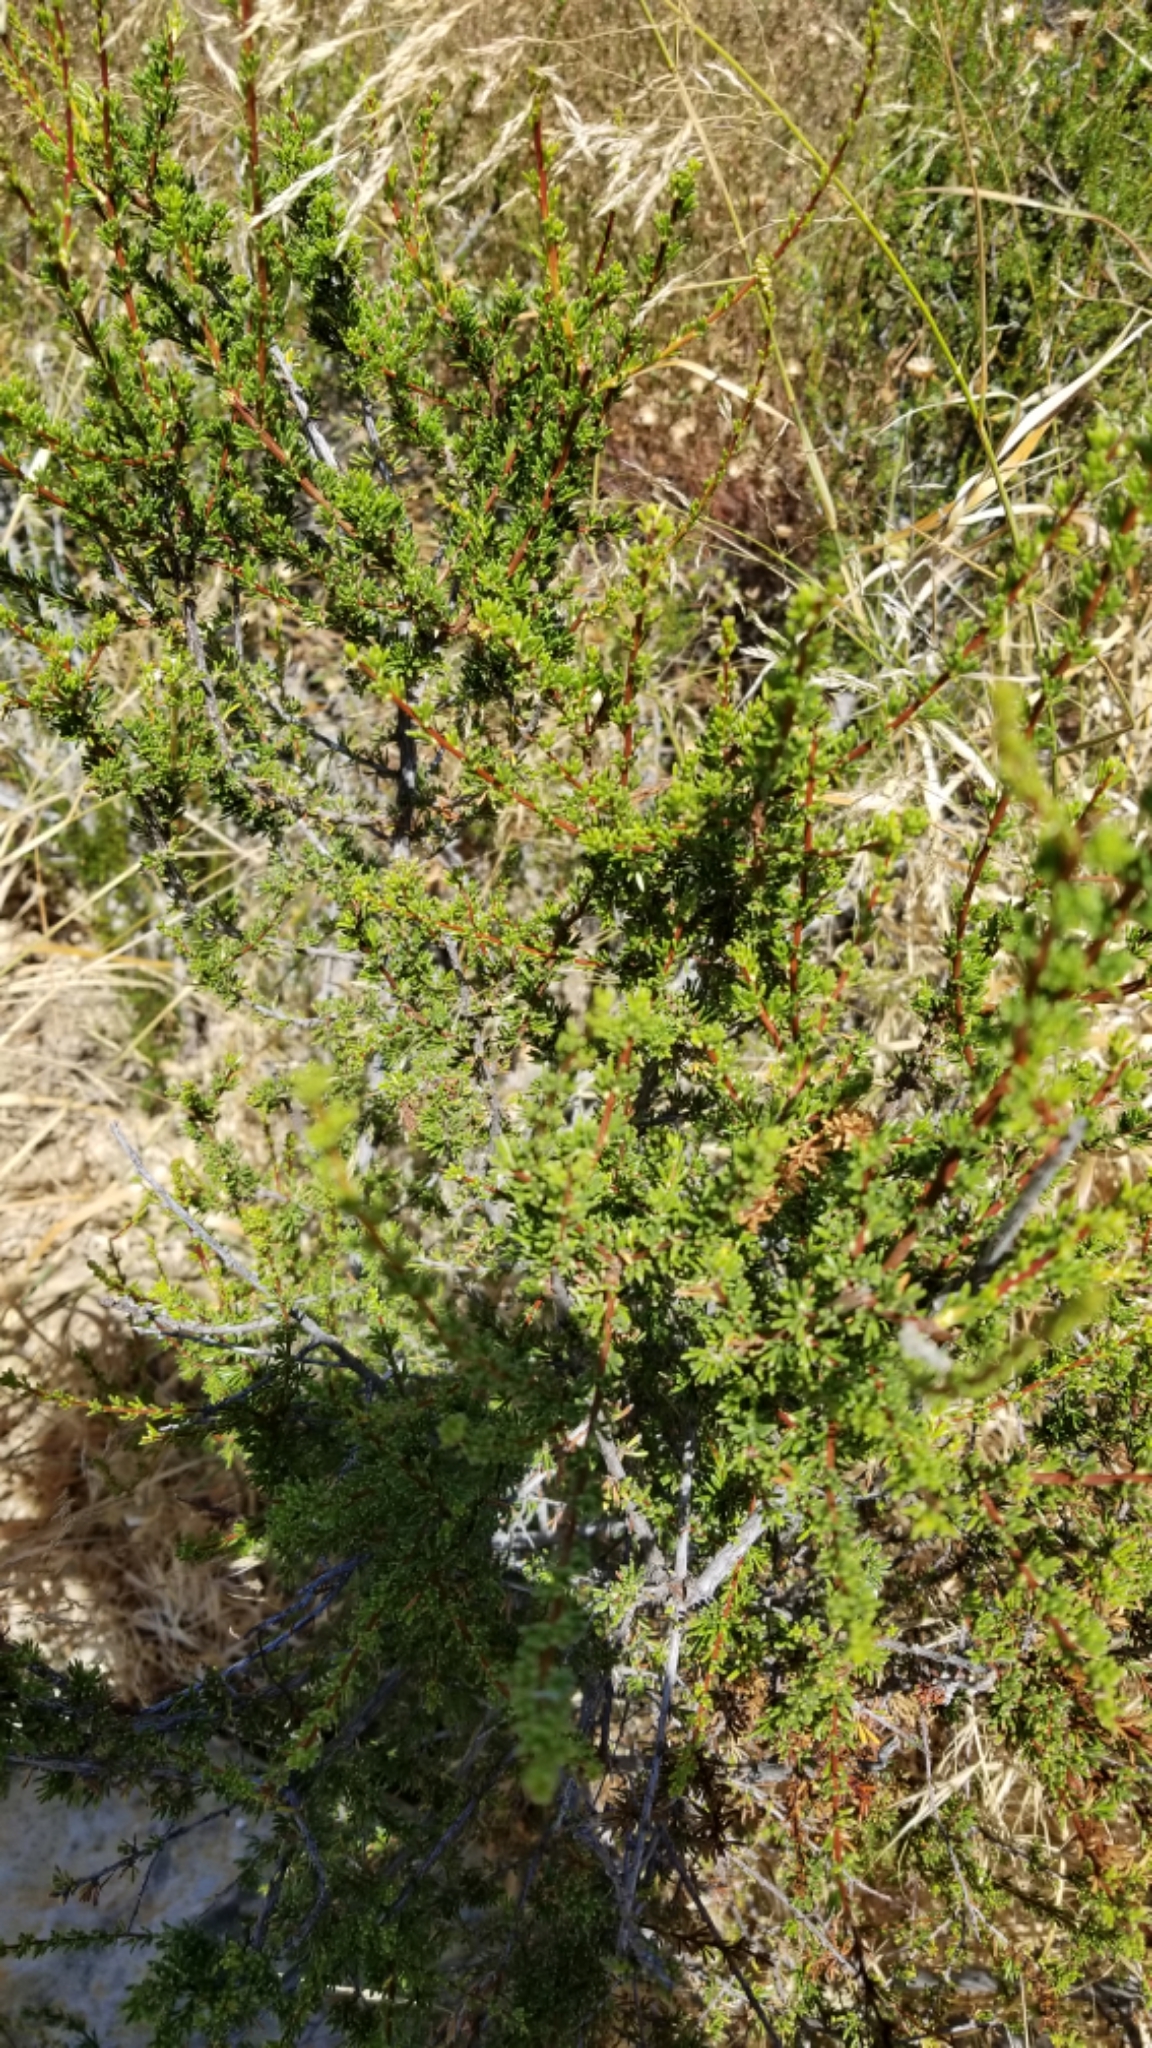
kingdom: Plantae
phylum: Tracheophyta
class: Magnoliopsida
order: Rosales
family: Rosaceae
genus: Adenostoma
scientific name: Adenostoma fasciculatum
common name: Chamise
